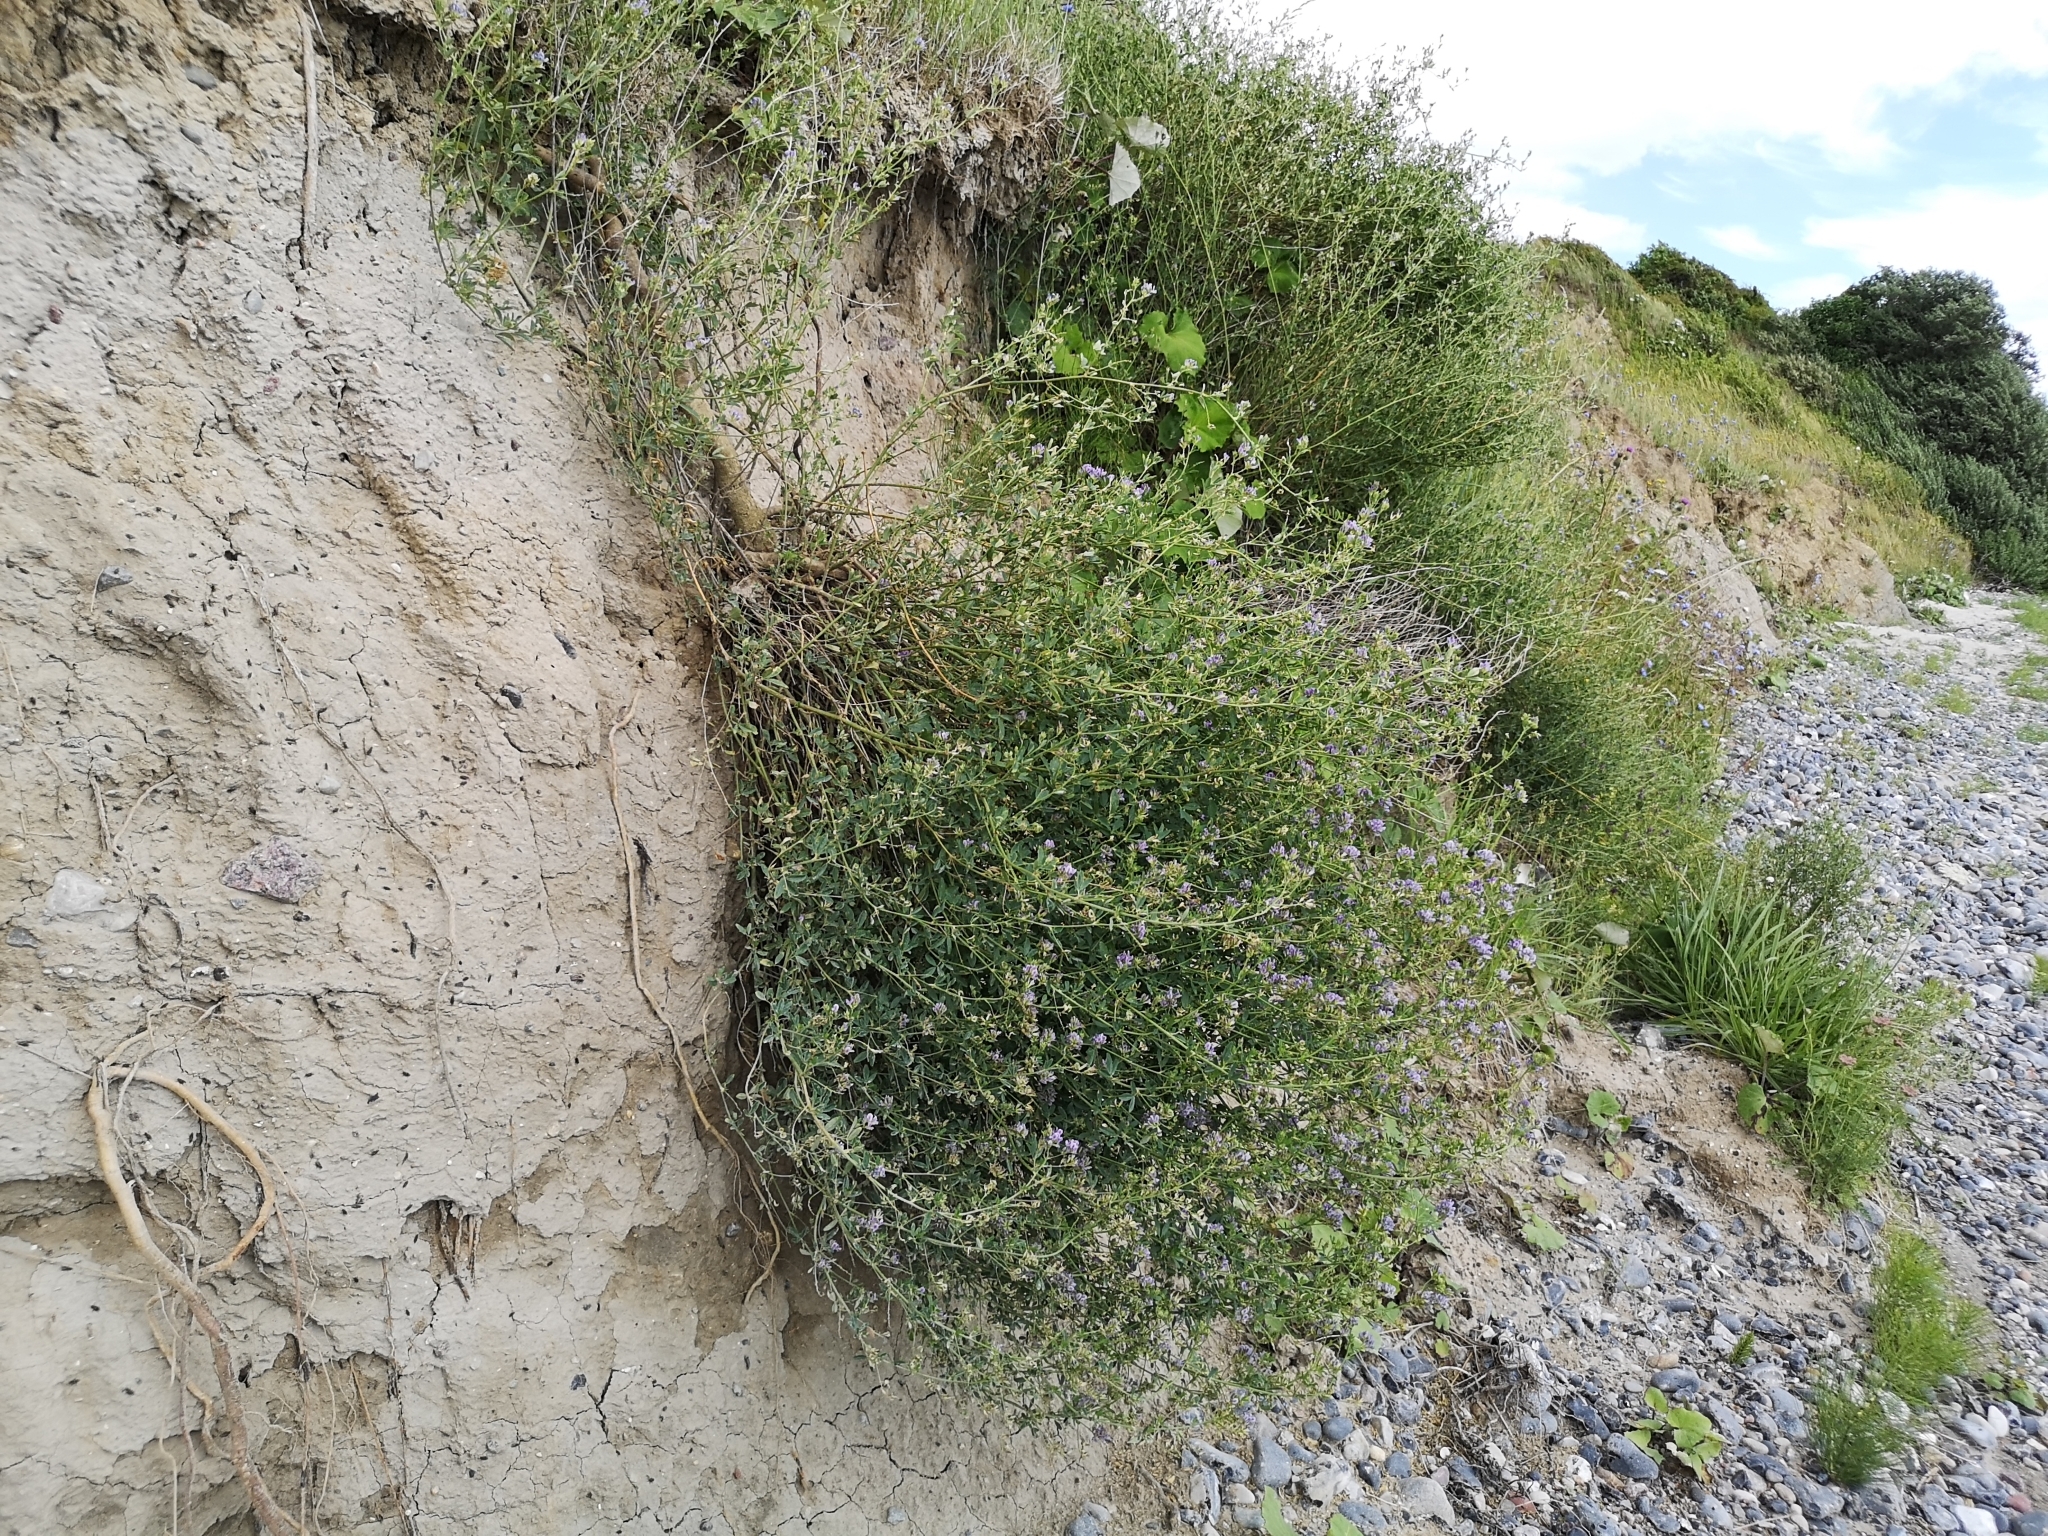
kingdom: Plantae
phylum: Tracheophyta
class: Magnoliopsida
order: Fabales
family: Fabaceae
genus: Medicago
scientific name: Medicago varia
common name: Sand lucerne
